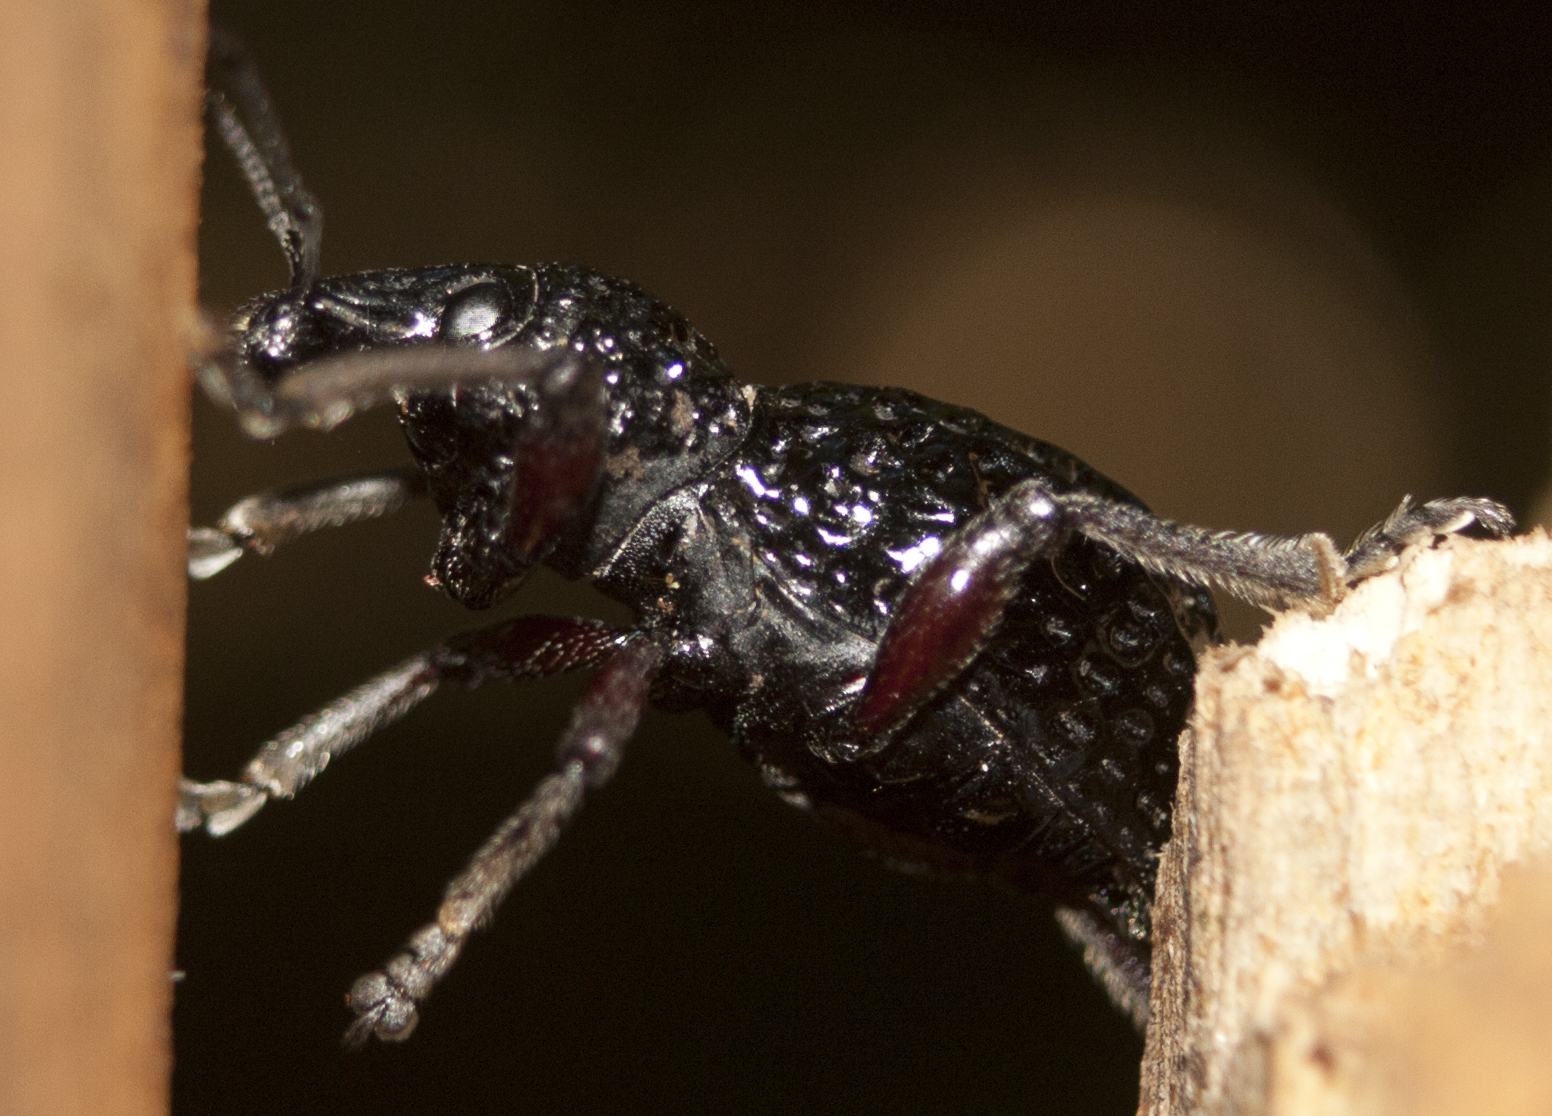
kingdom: Animalia
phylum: Arthropoda
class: Insecta
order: Coleoptera
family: Curculionidae
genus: Zymaus
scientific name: Zymaus angustus
